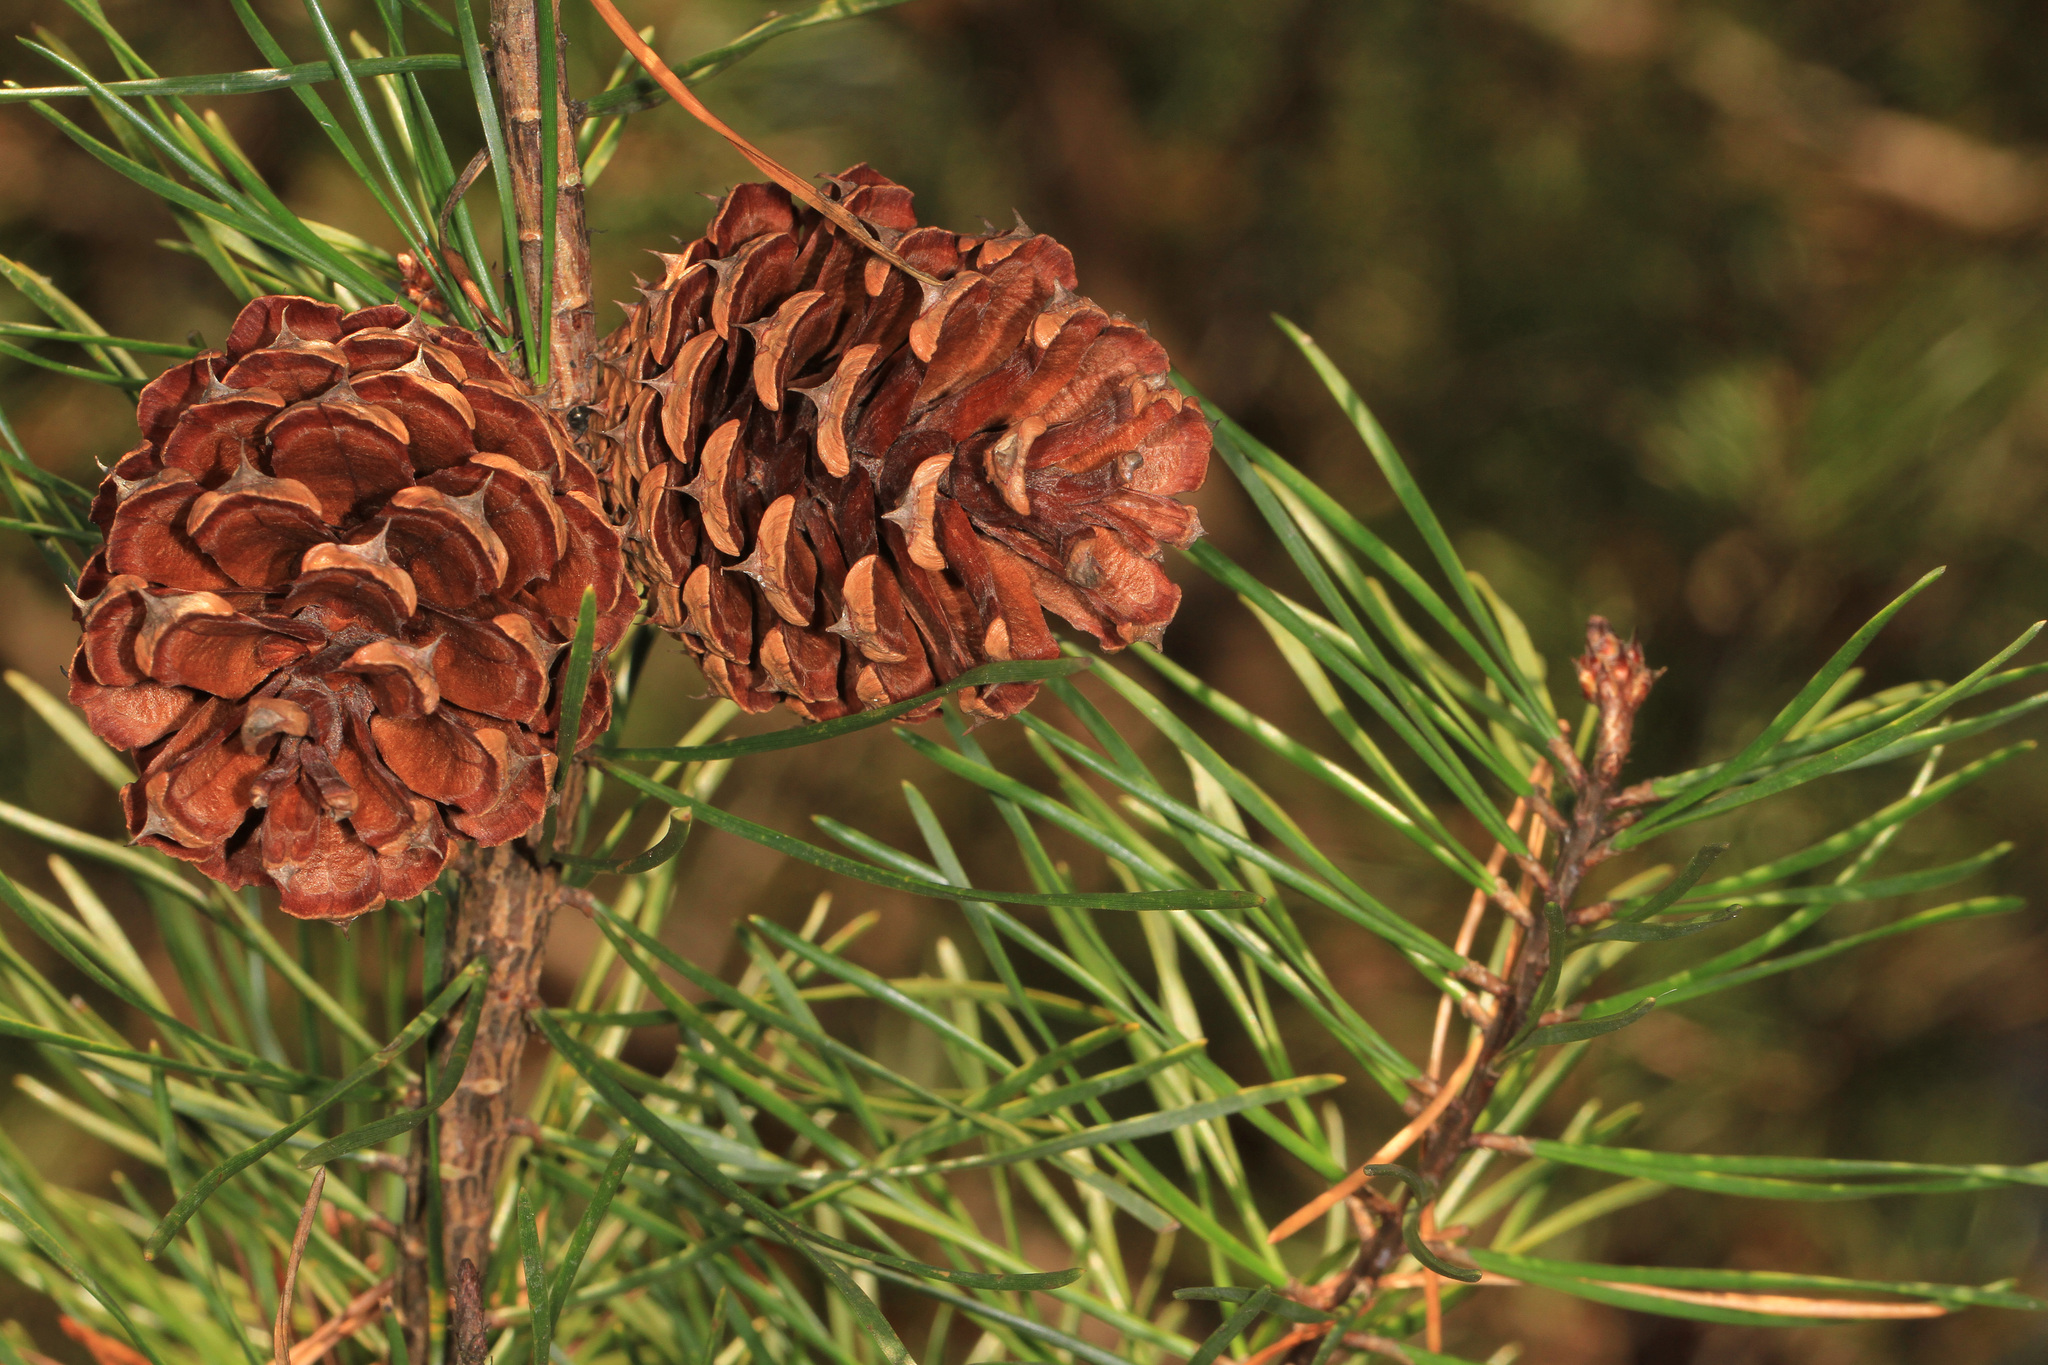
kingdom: Plantae
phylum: Tracheophyta
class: Pinopsida
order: Pinales
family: Pinaceae
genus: Pinus
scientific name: Pinus virginiana
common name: Scrub pine
